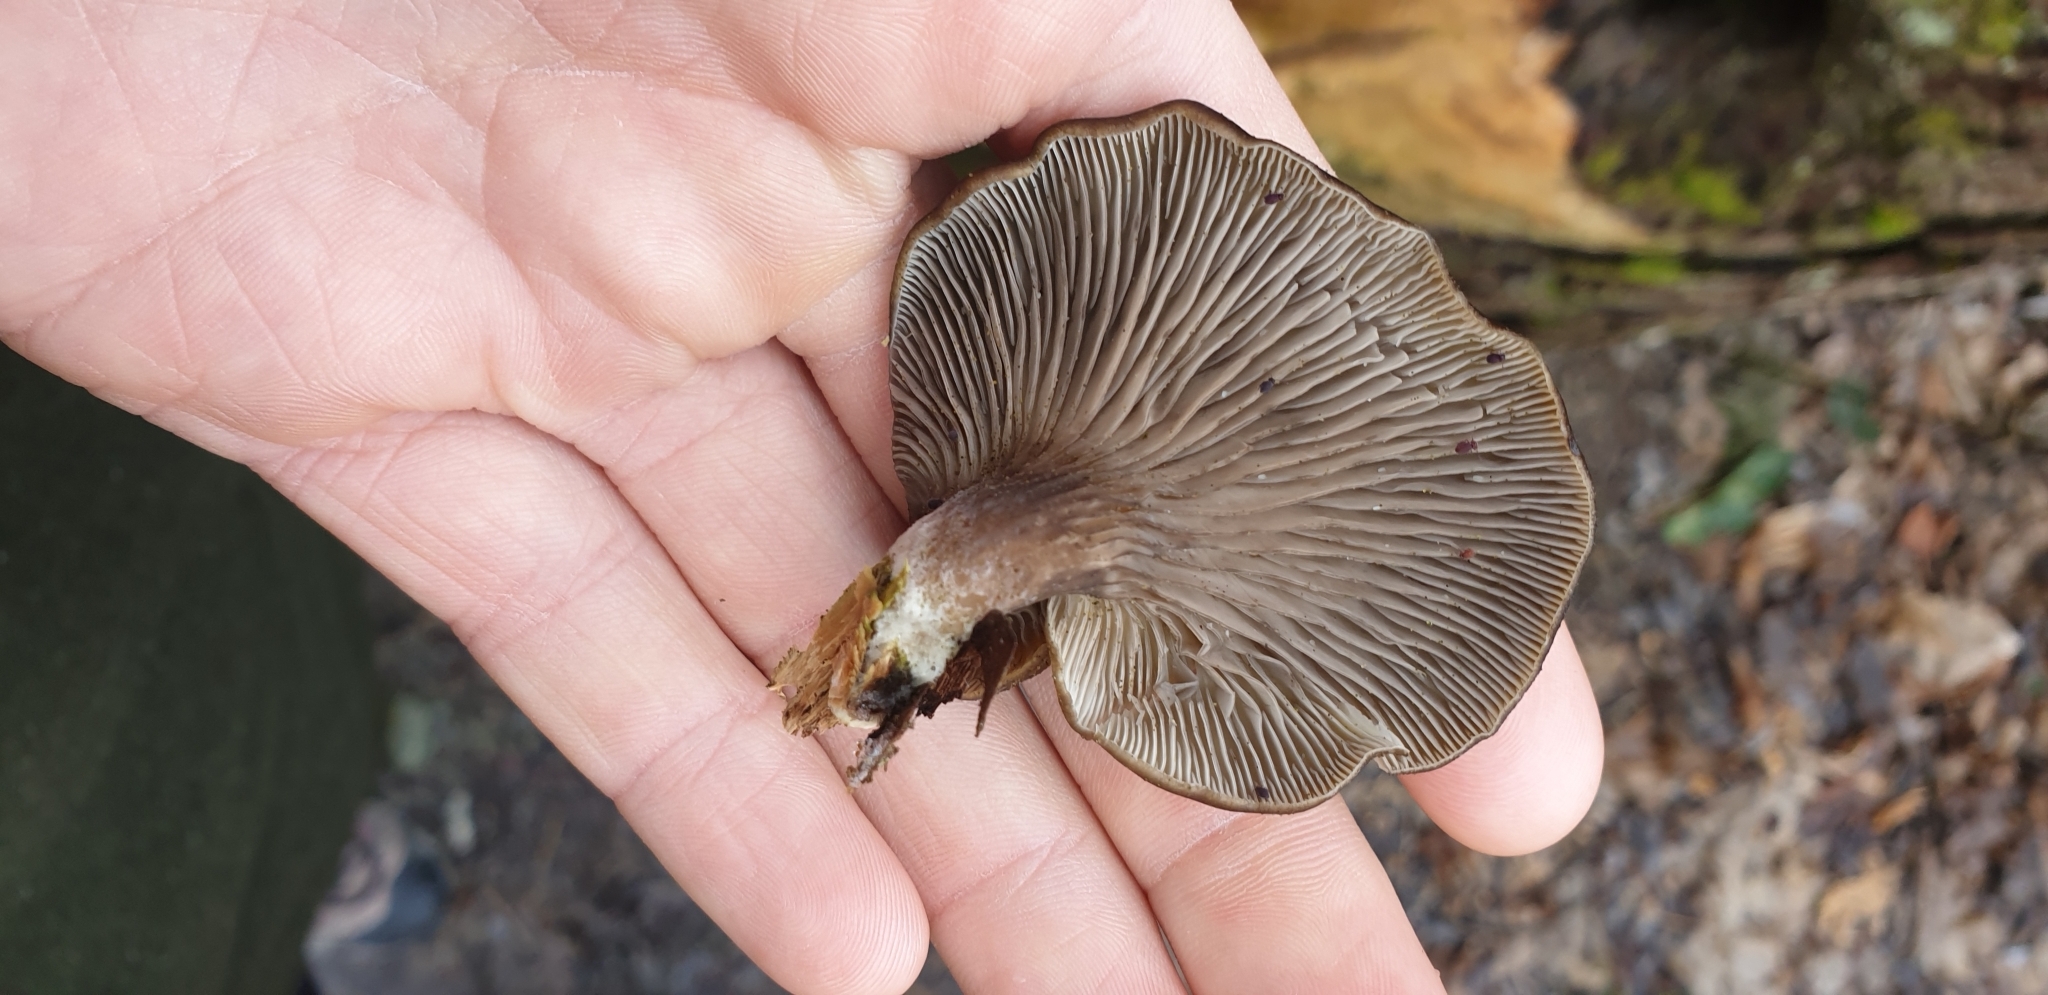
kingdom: Fungi
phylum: Basidiomycota
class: Agaricomycetes
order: Agaricales
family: Pleurotaceae
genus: Pleurotus
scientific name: Pleurotus purpureo-olivaceus
